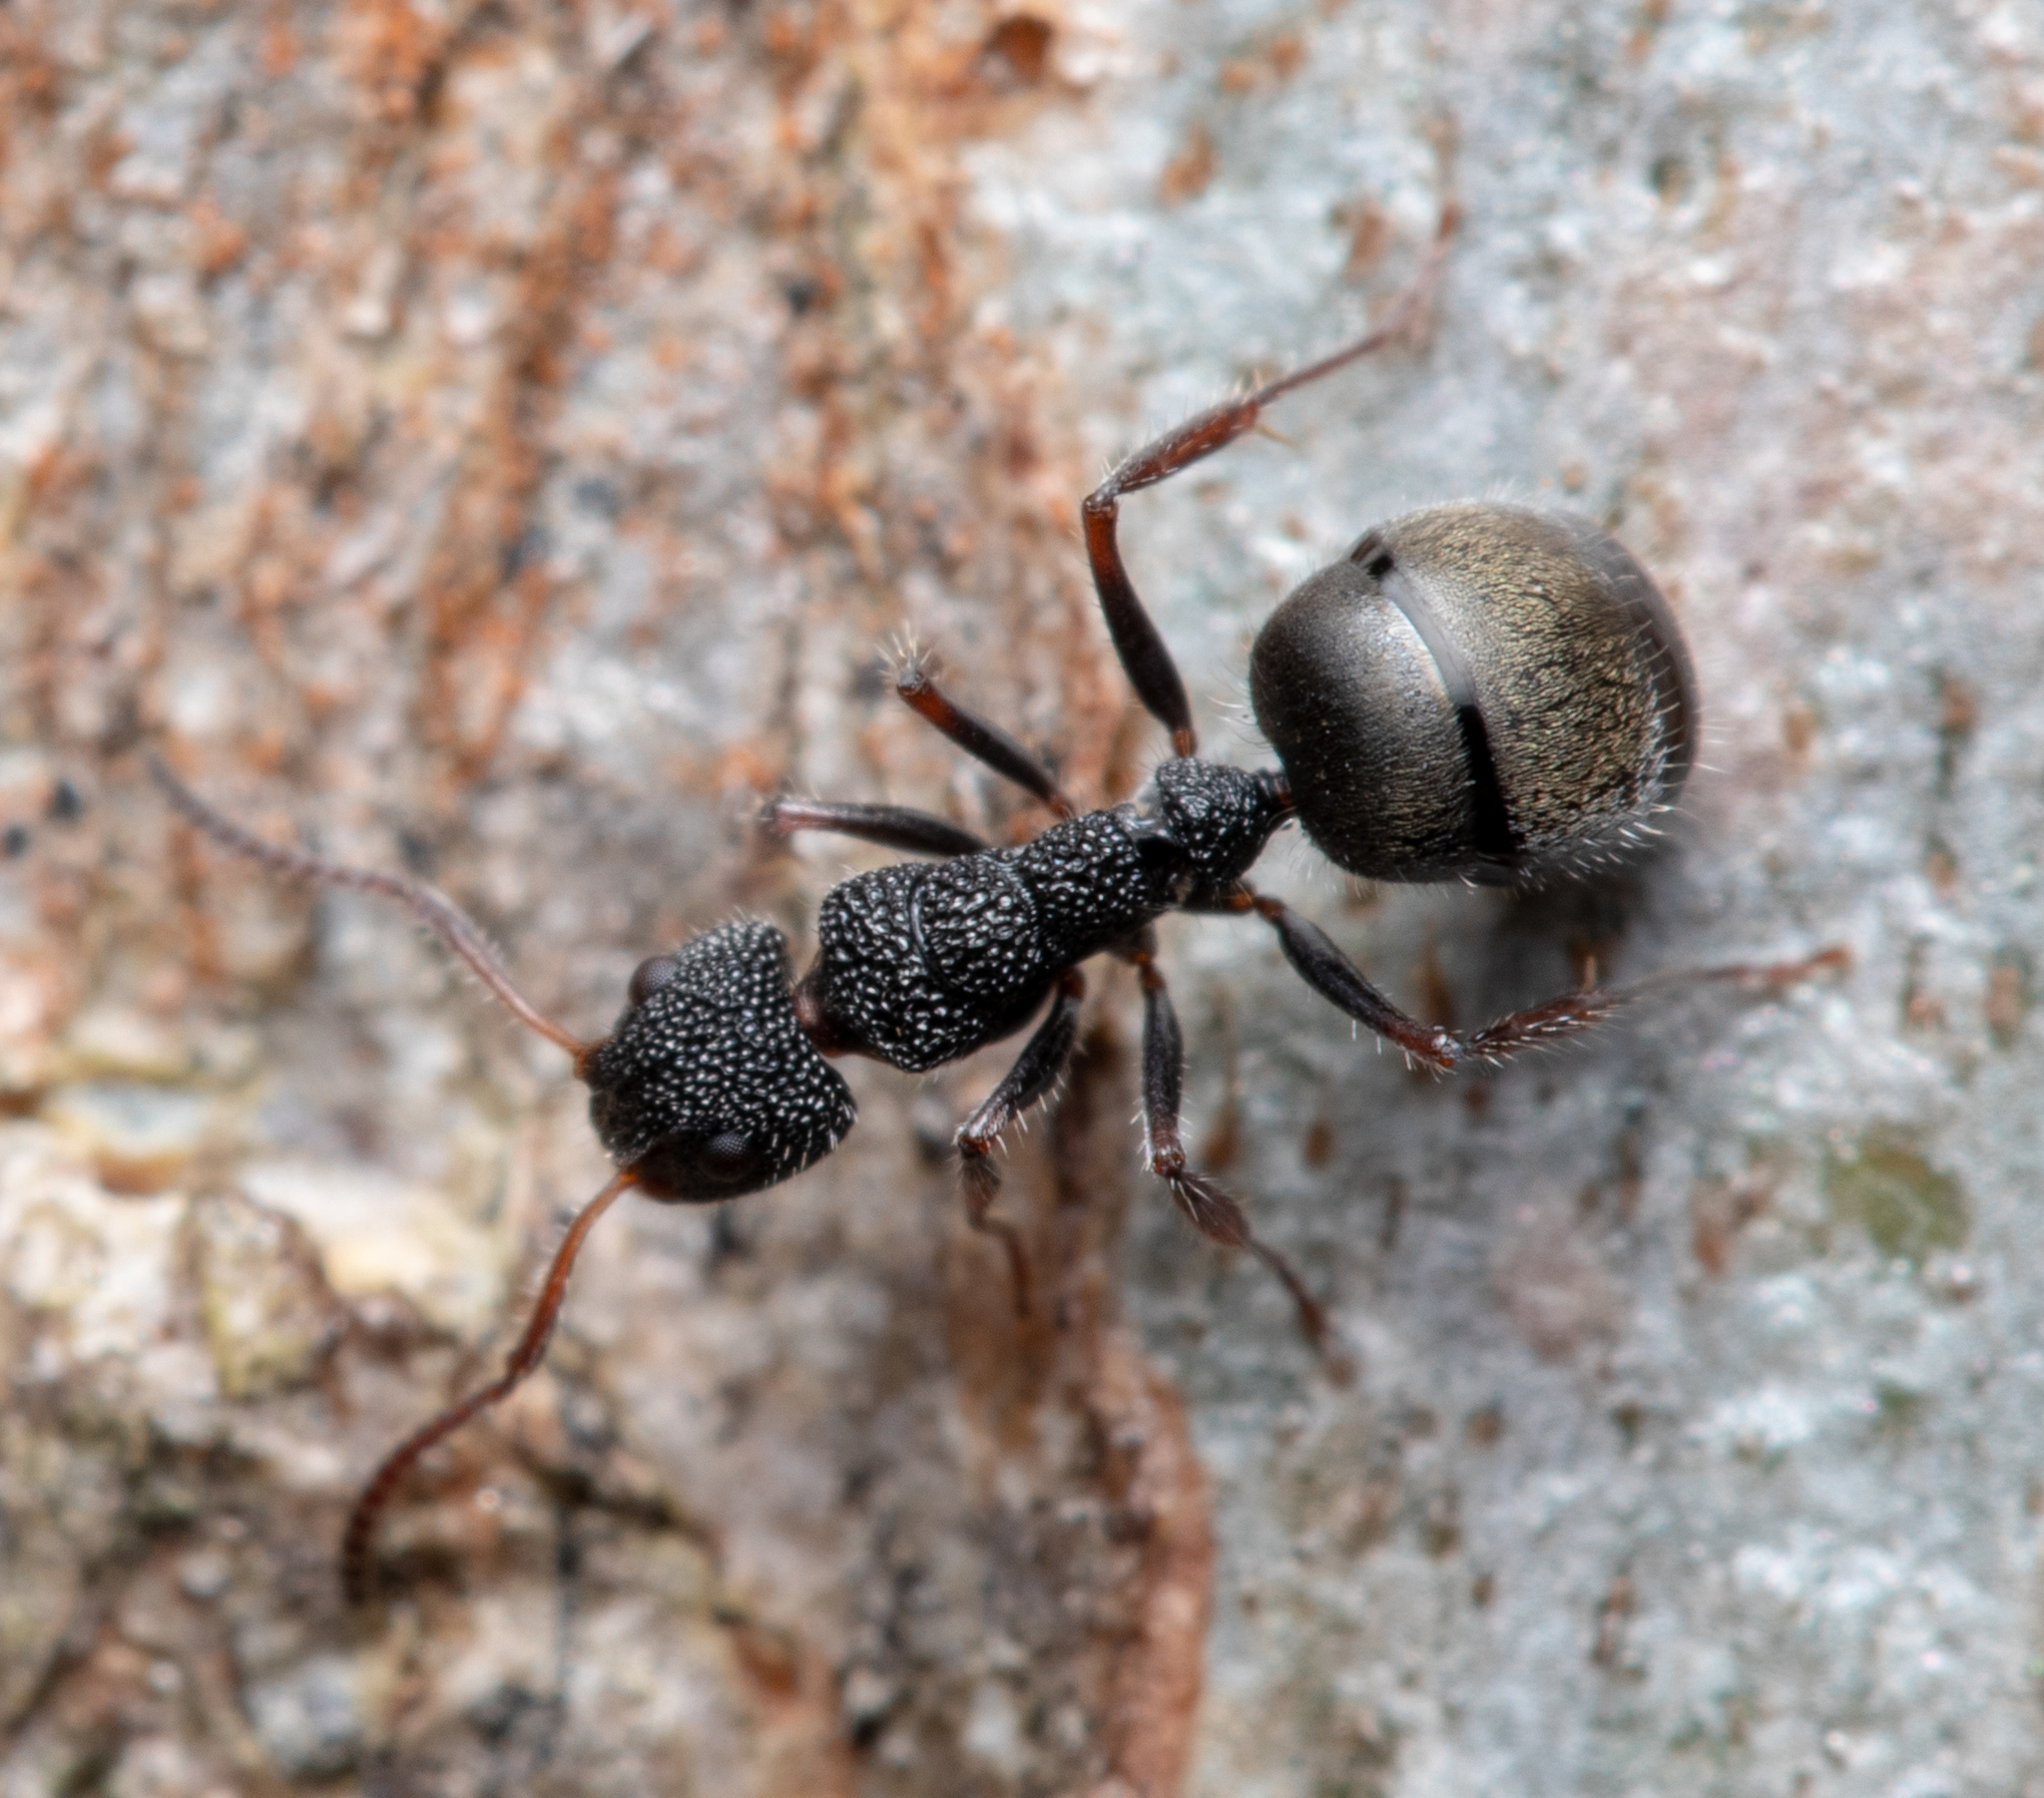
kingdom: Animalia
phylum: Arthropoda
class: Insecta
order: Hymenoptera
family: Formicidae
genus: Dolichoderus
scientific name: Dolichoderus scrobiculatus
